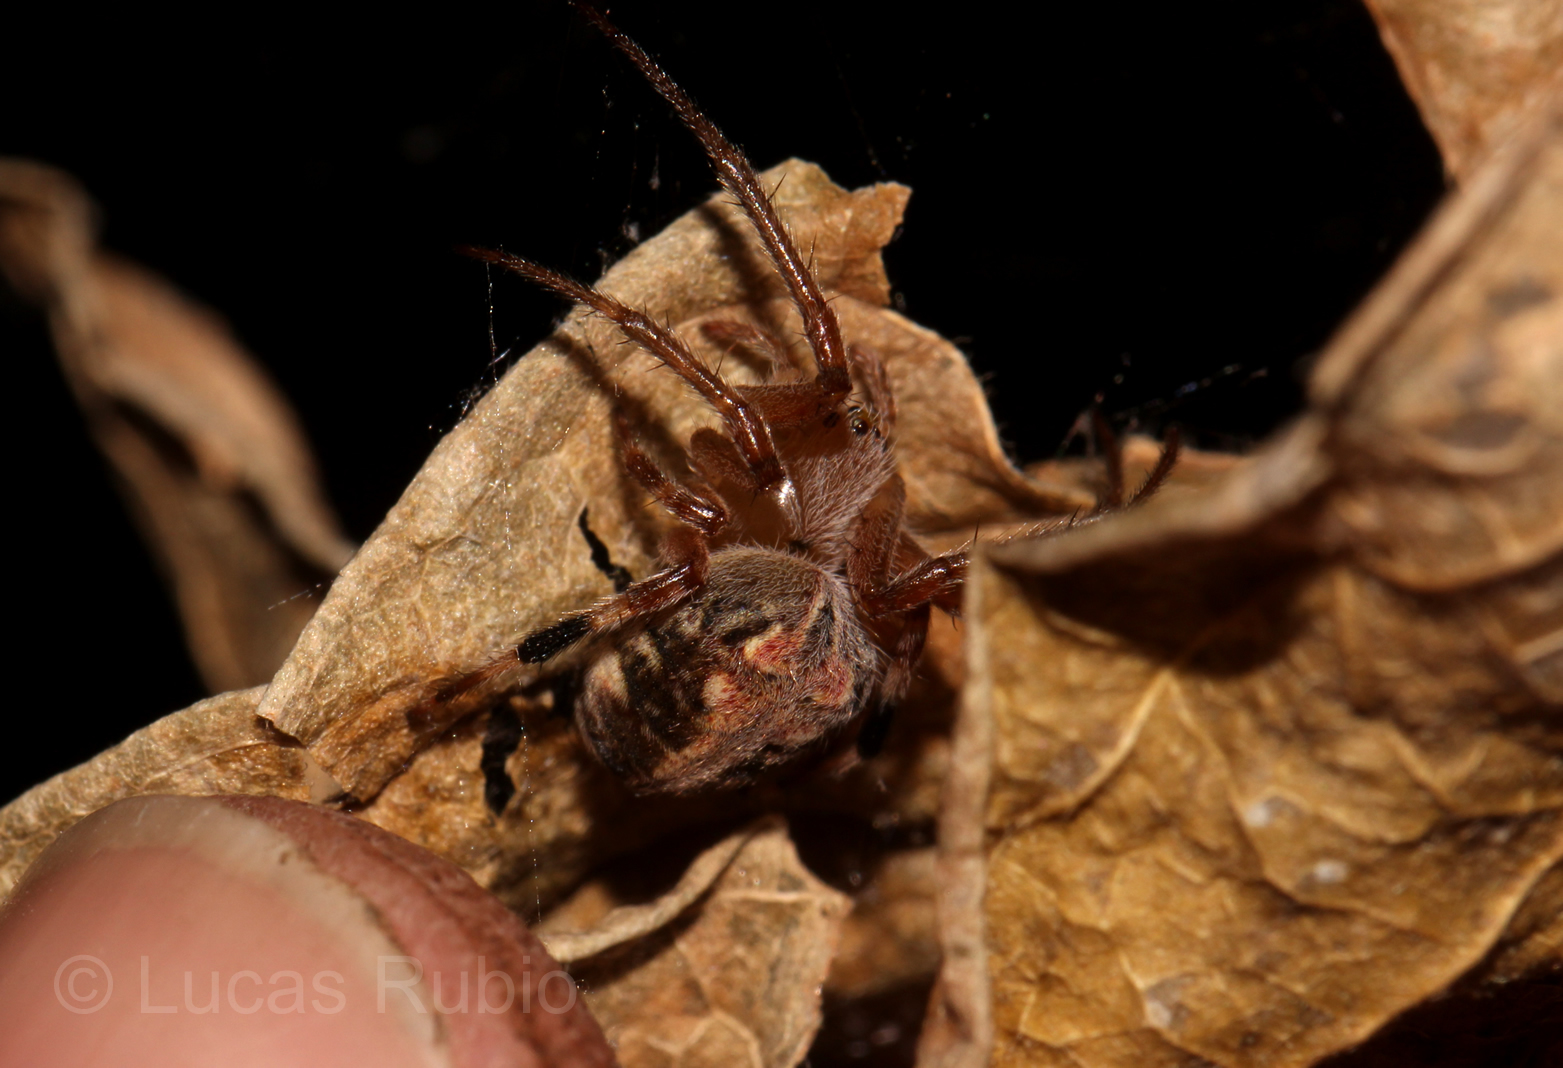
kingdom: Animalia
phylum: Arthropoda
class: Arachnida
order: Araneae
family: Araneidae
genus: Araneus
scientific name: Araneus omnicolor
